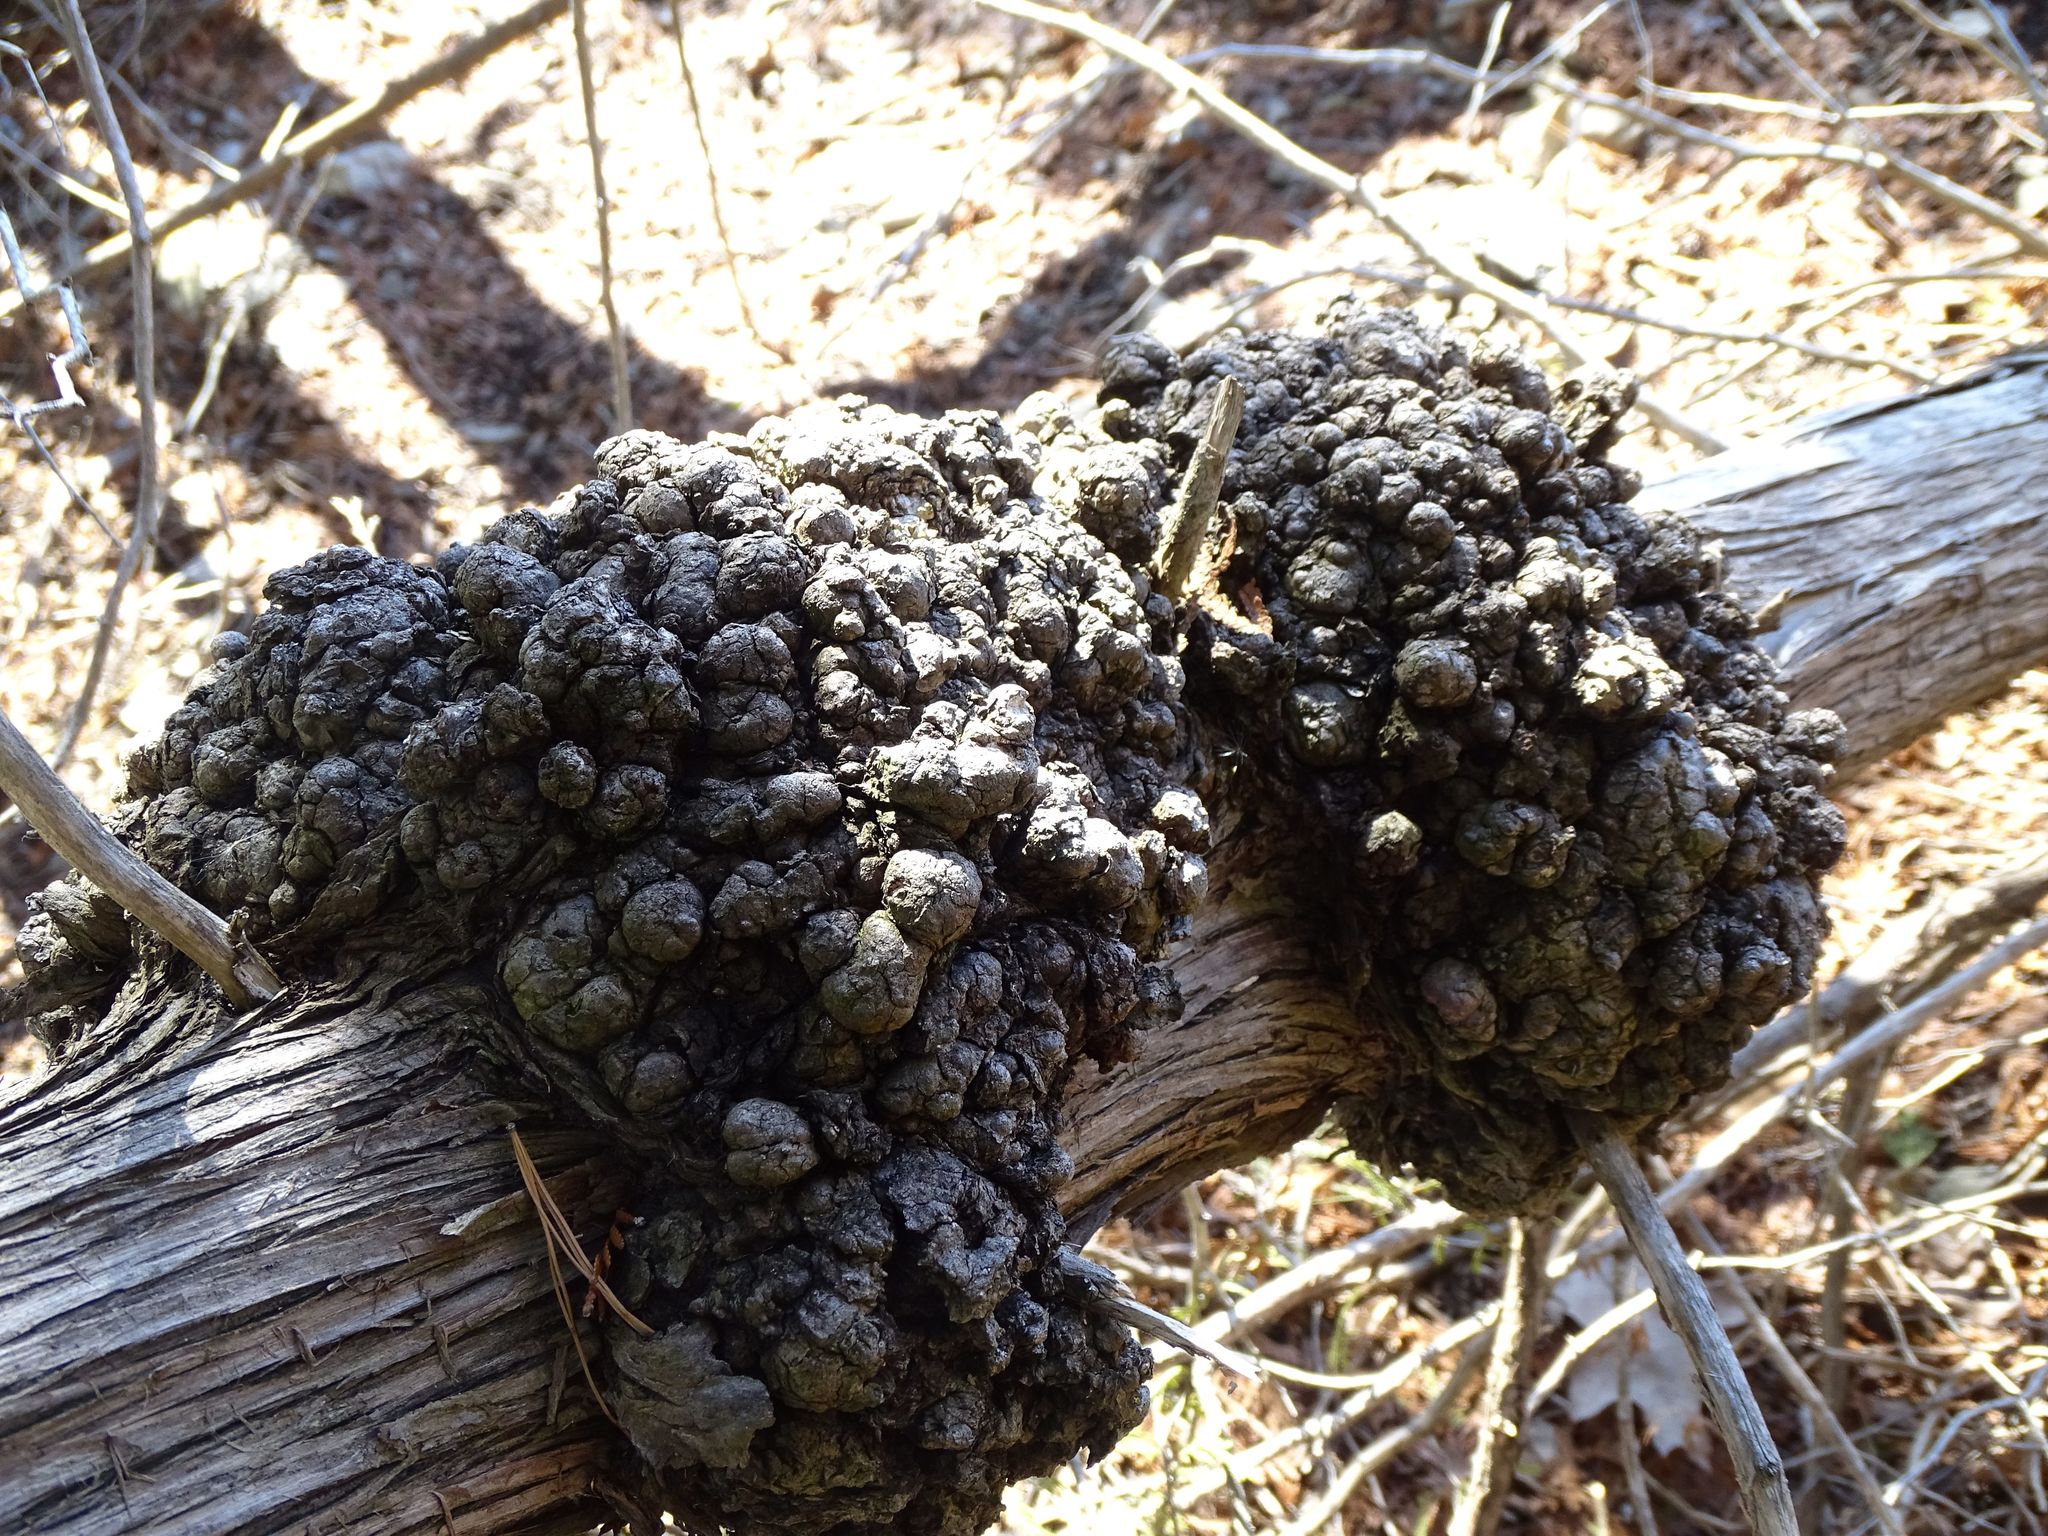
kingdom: Plantae
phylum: Tracheophyta
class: Pinopsida
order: Pinales
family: Cupressaceae
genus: Thuja
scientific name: Thuja occidentalis
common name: Northern white-cedar
